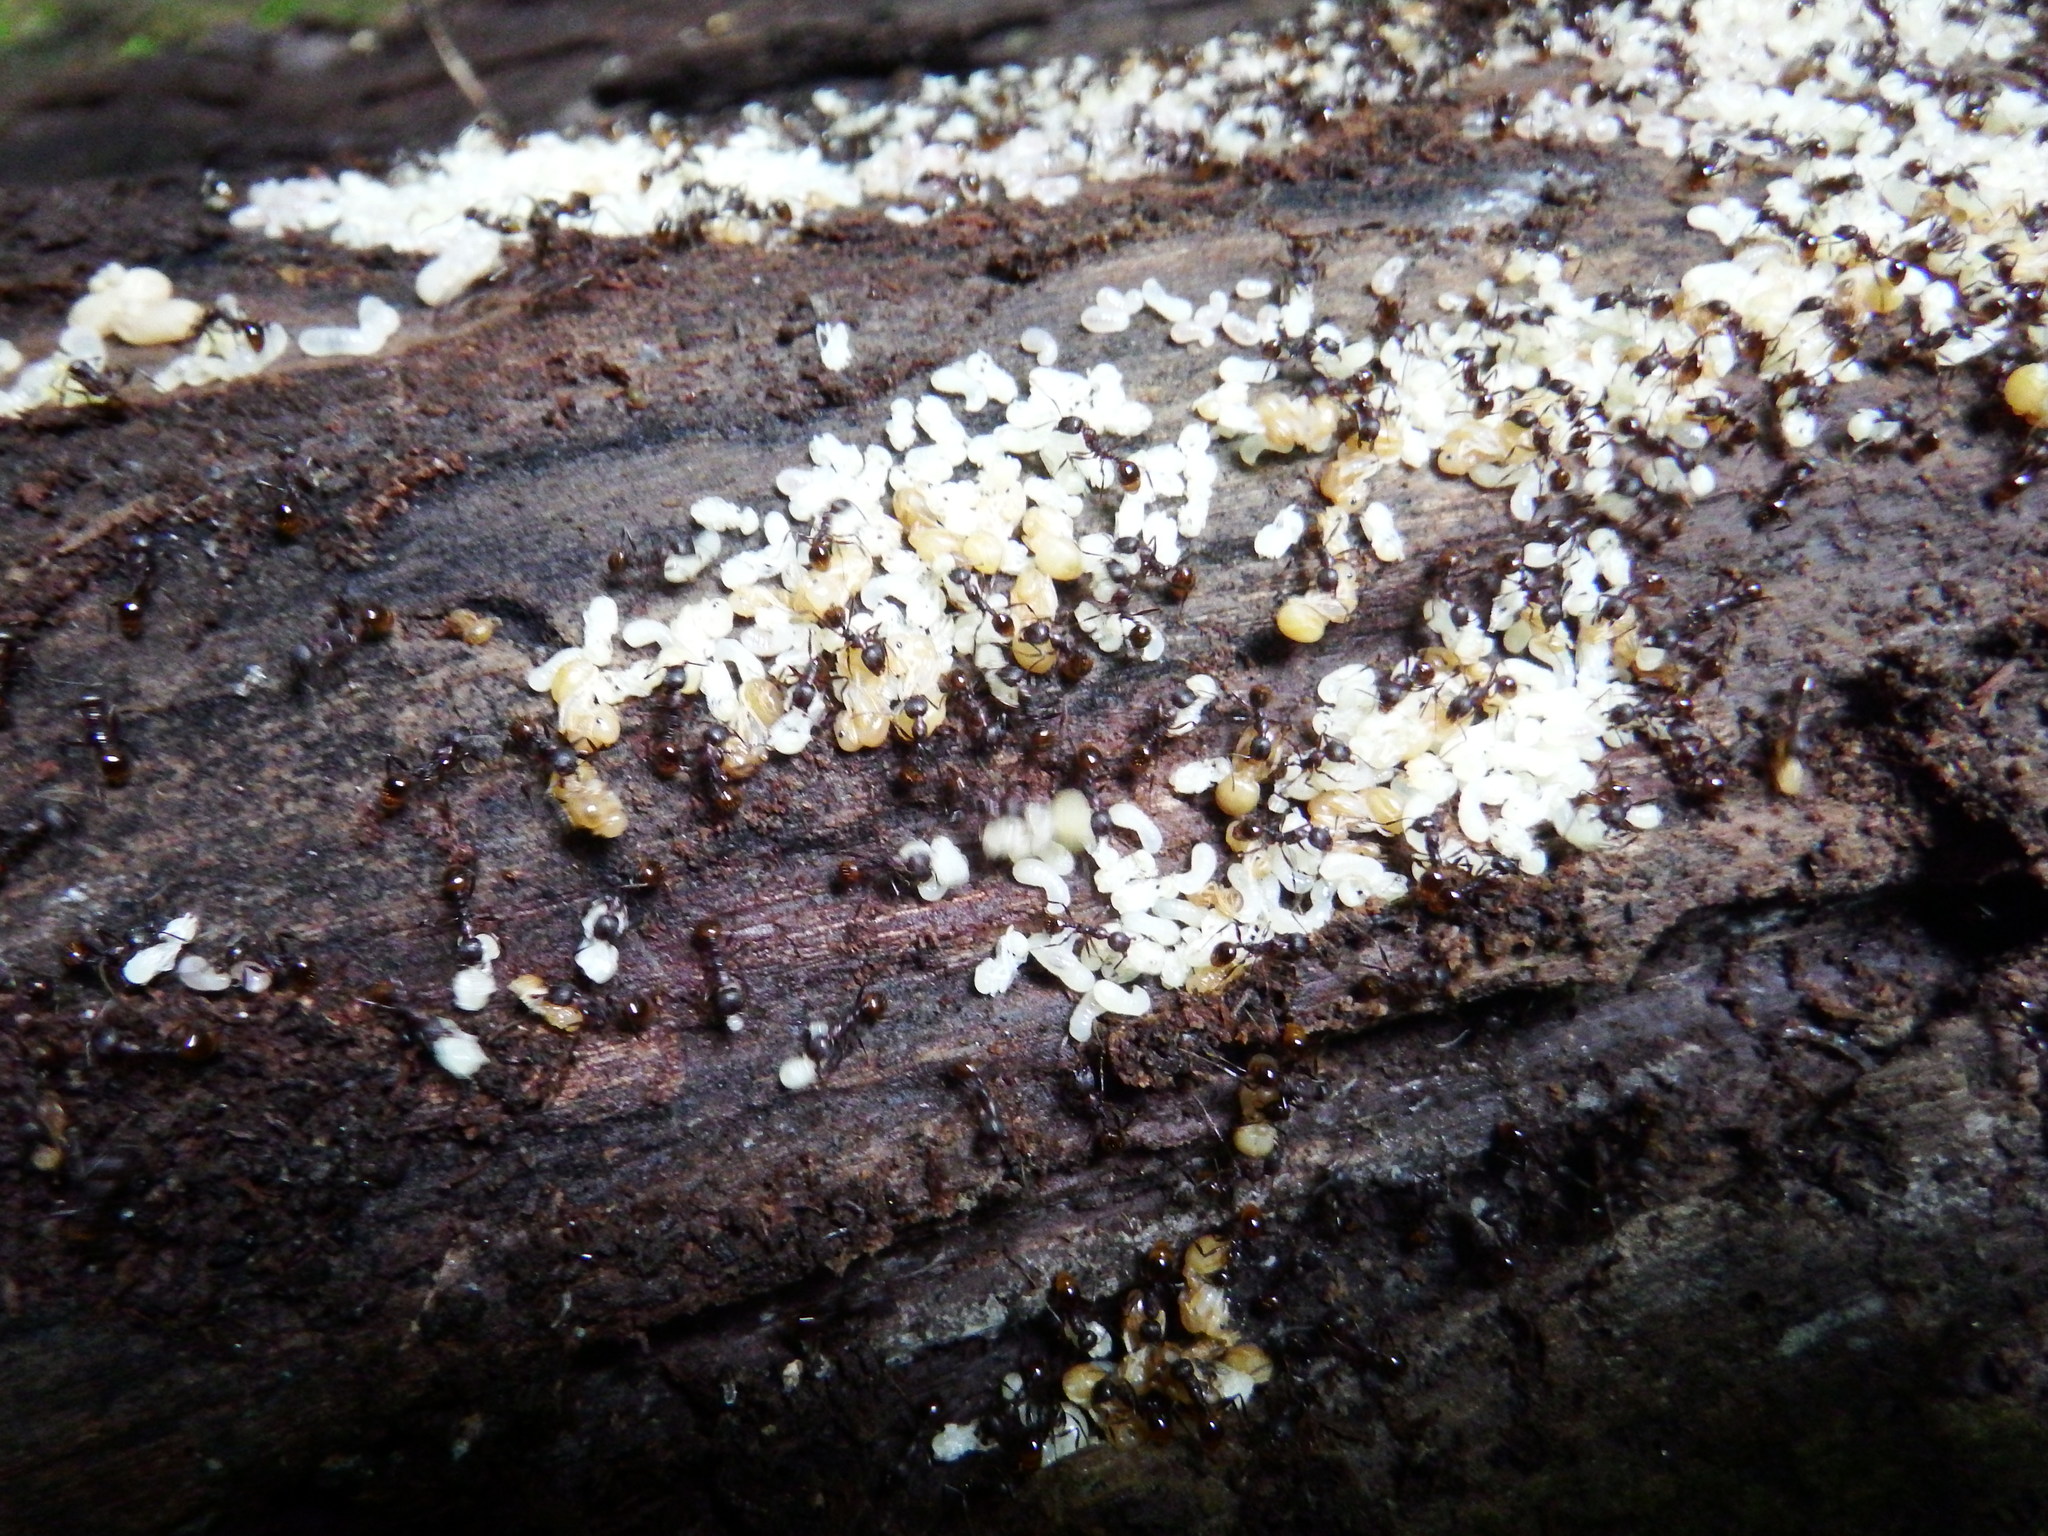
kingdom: Animalia
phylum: Arthropoda
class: Insecta
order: Hymenoptera
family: Formicidae
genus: Aphaenogaster
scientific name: Aphaenogaster fulva
